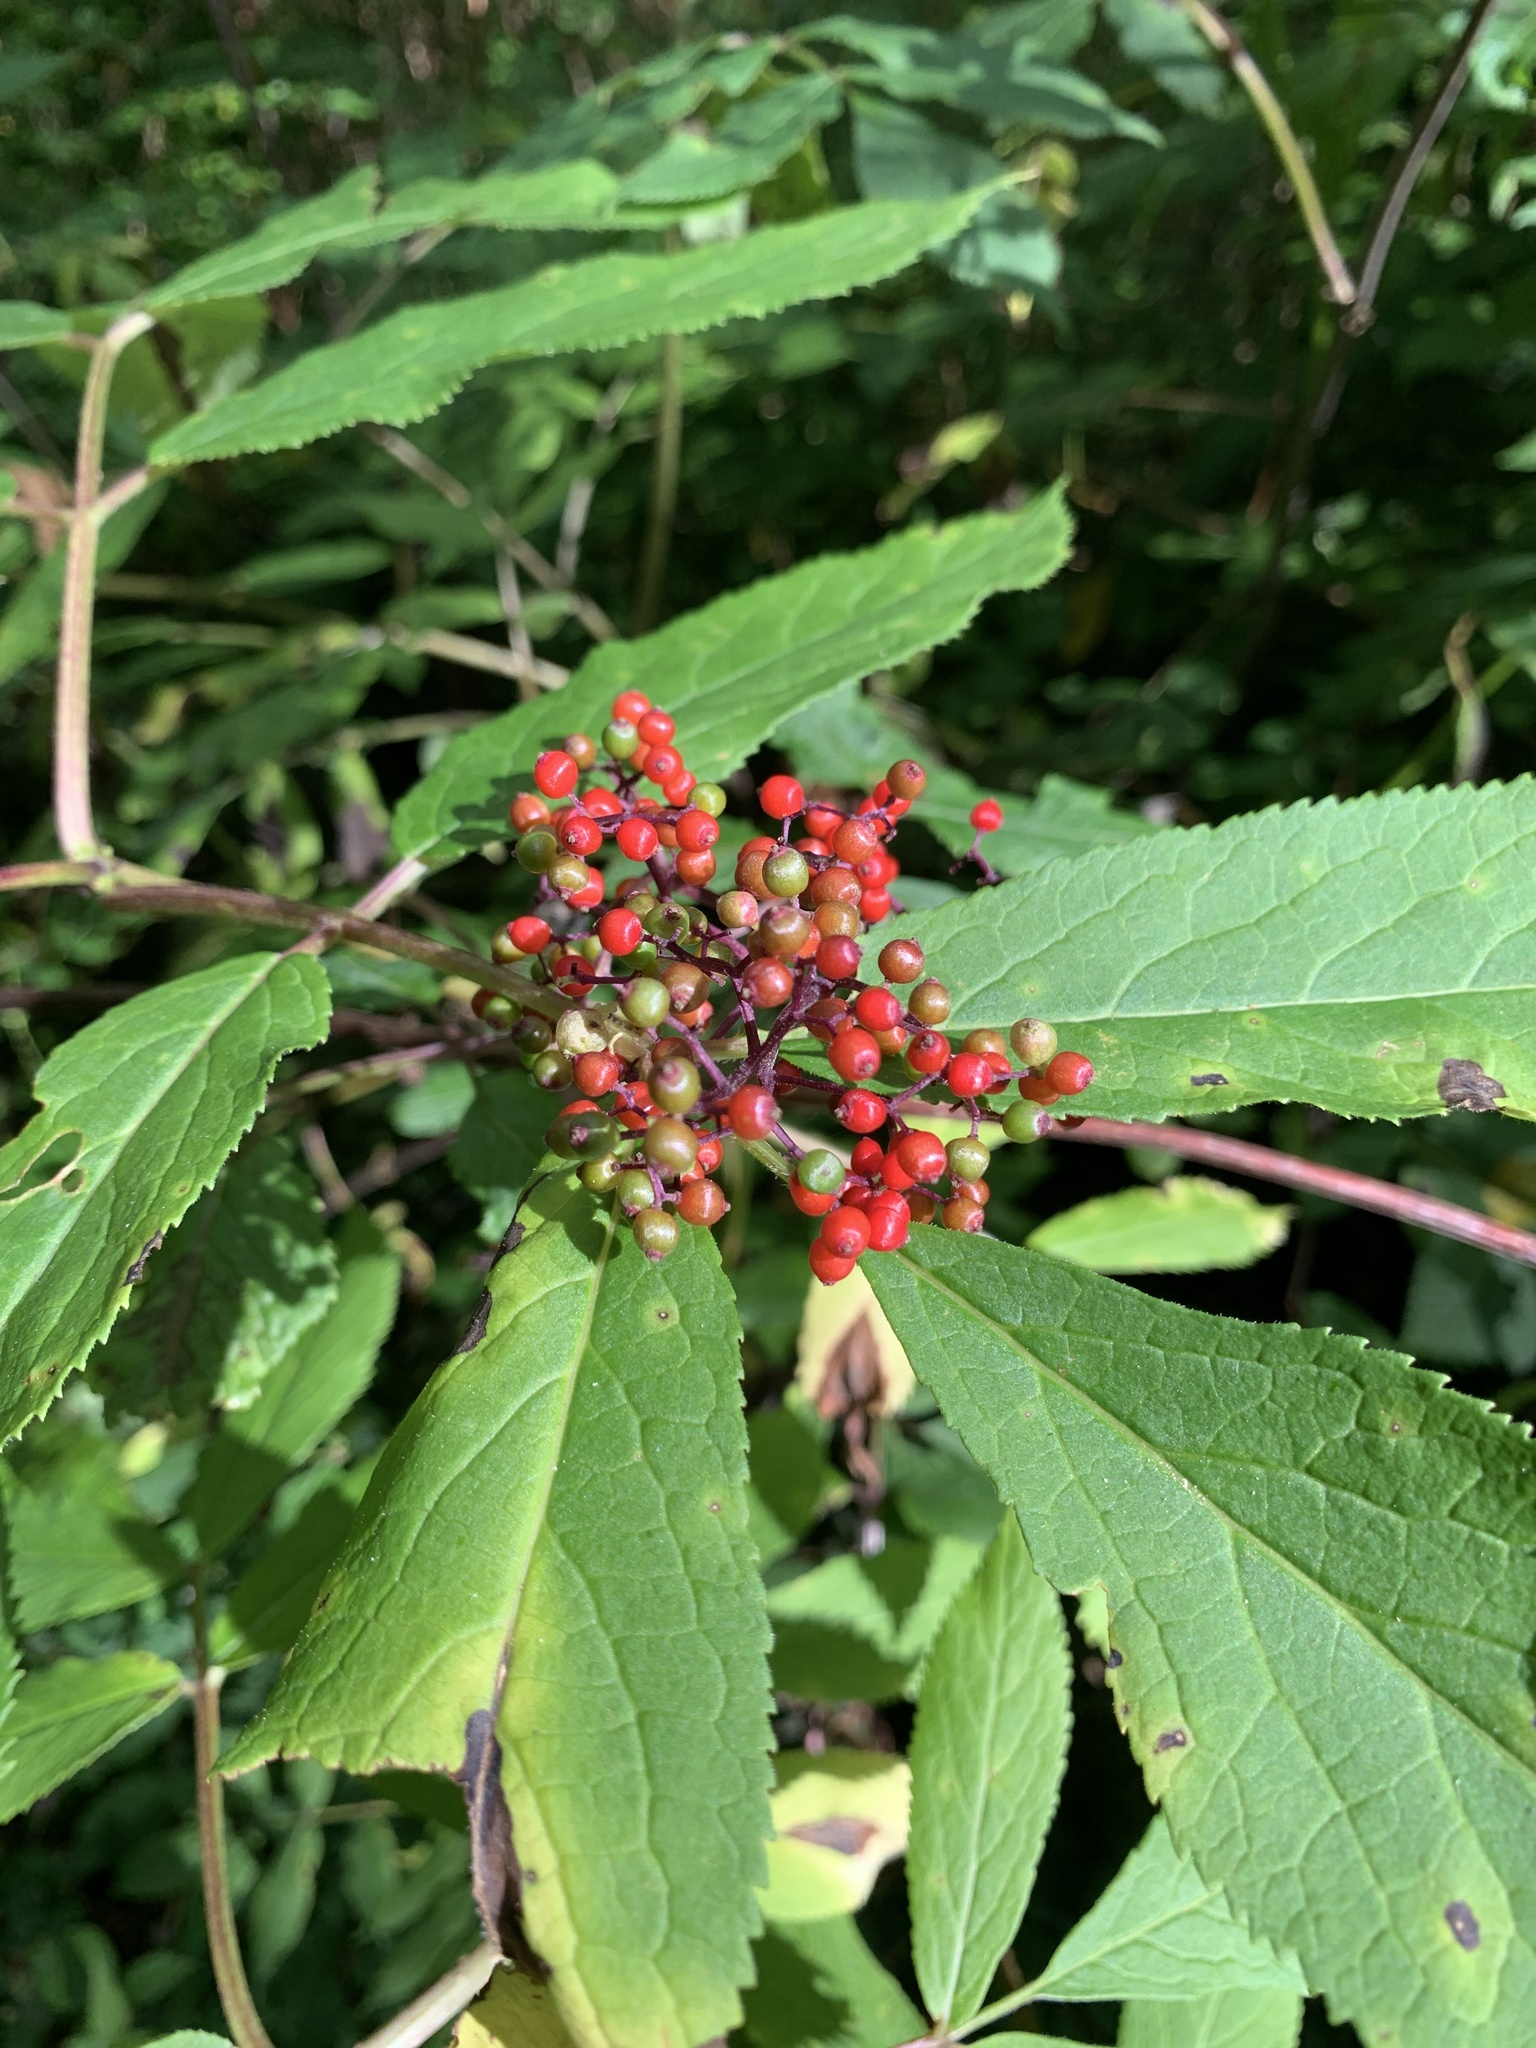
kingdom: Plantae
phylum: Tracheophyta
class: Magnoliopsida
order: Dipsacales
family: Viburnaceae
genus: Sambucus
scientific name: Sambucus racemosa
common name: Red-berried elder
